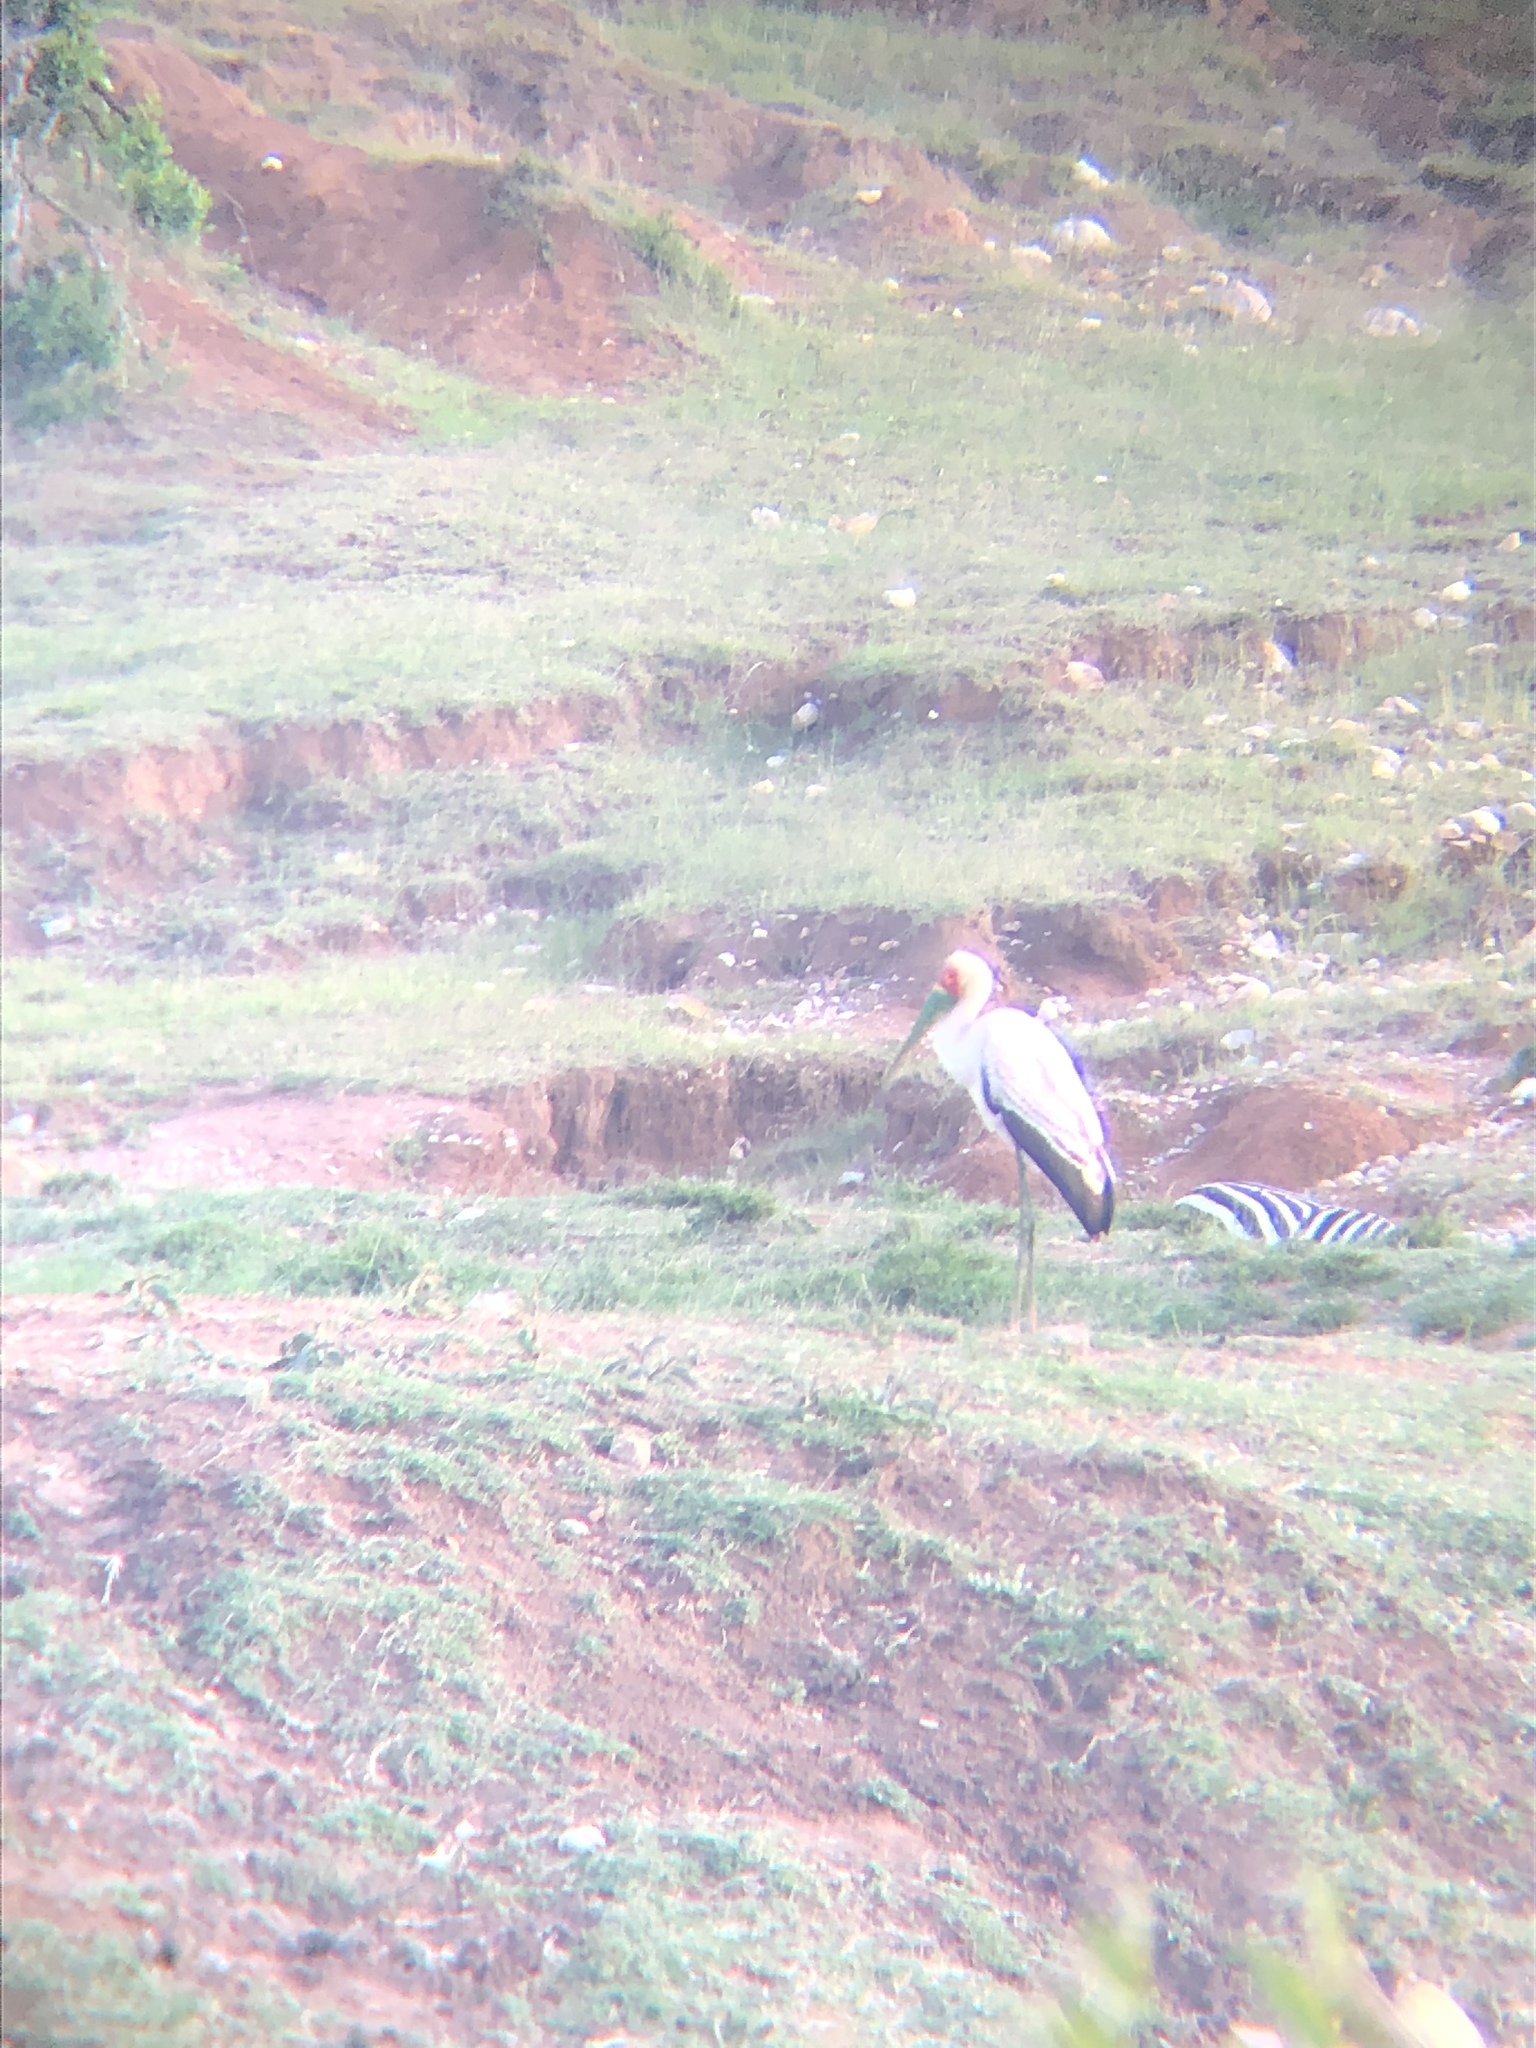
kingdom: Animalia
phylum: Chordata
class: Aves
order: Ciconiiformes
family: Ciconiidae
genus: Mycteria
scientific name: Mycteria ibis
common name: Yellow-billed stork
